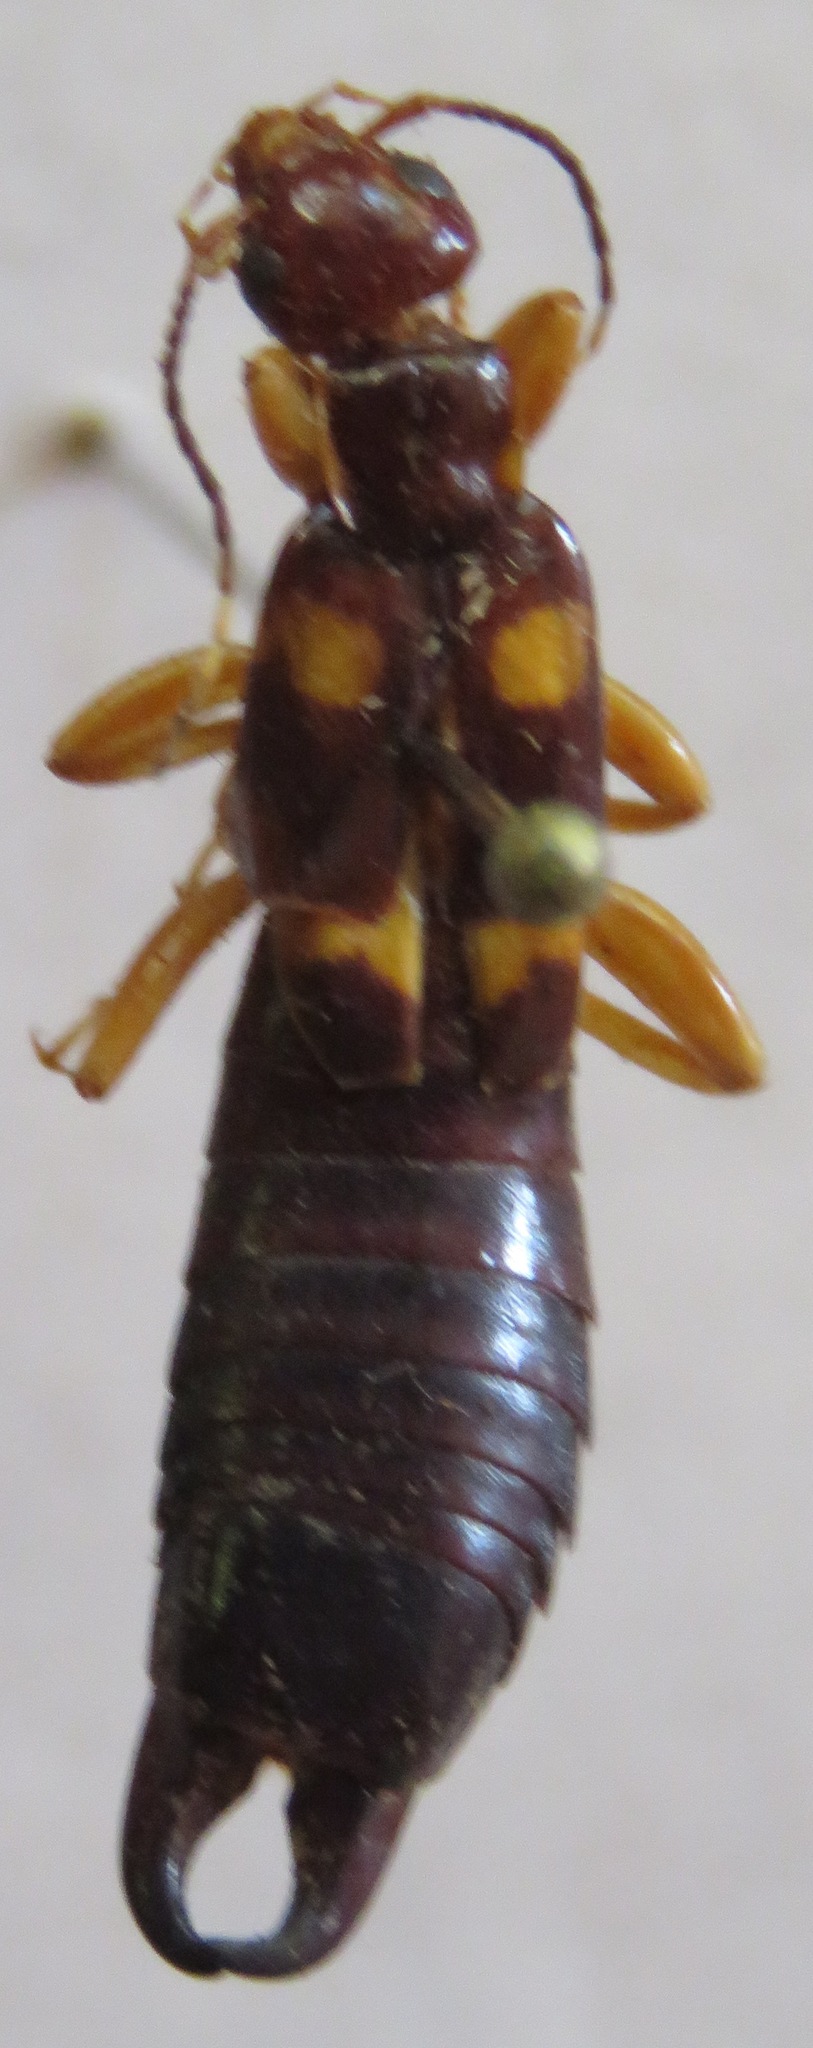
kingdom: Animalia
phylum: Arthropoda
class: Insecta
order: Dermaptera
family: Anisolabididae
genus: Carcinophora
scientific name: Carcinophora percheroni
